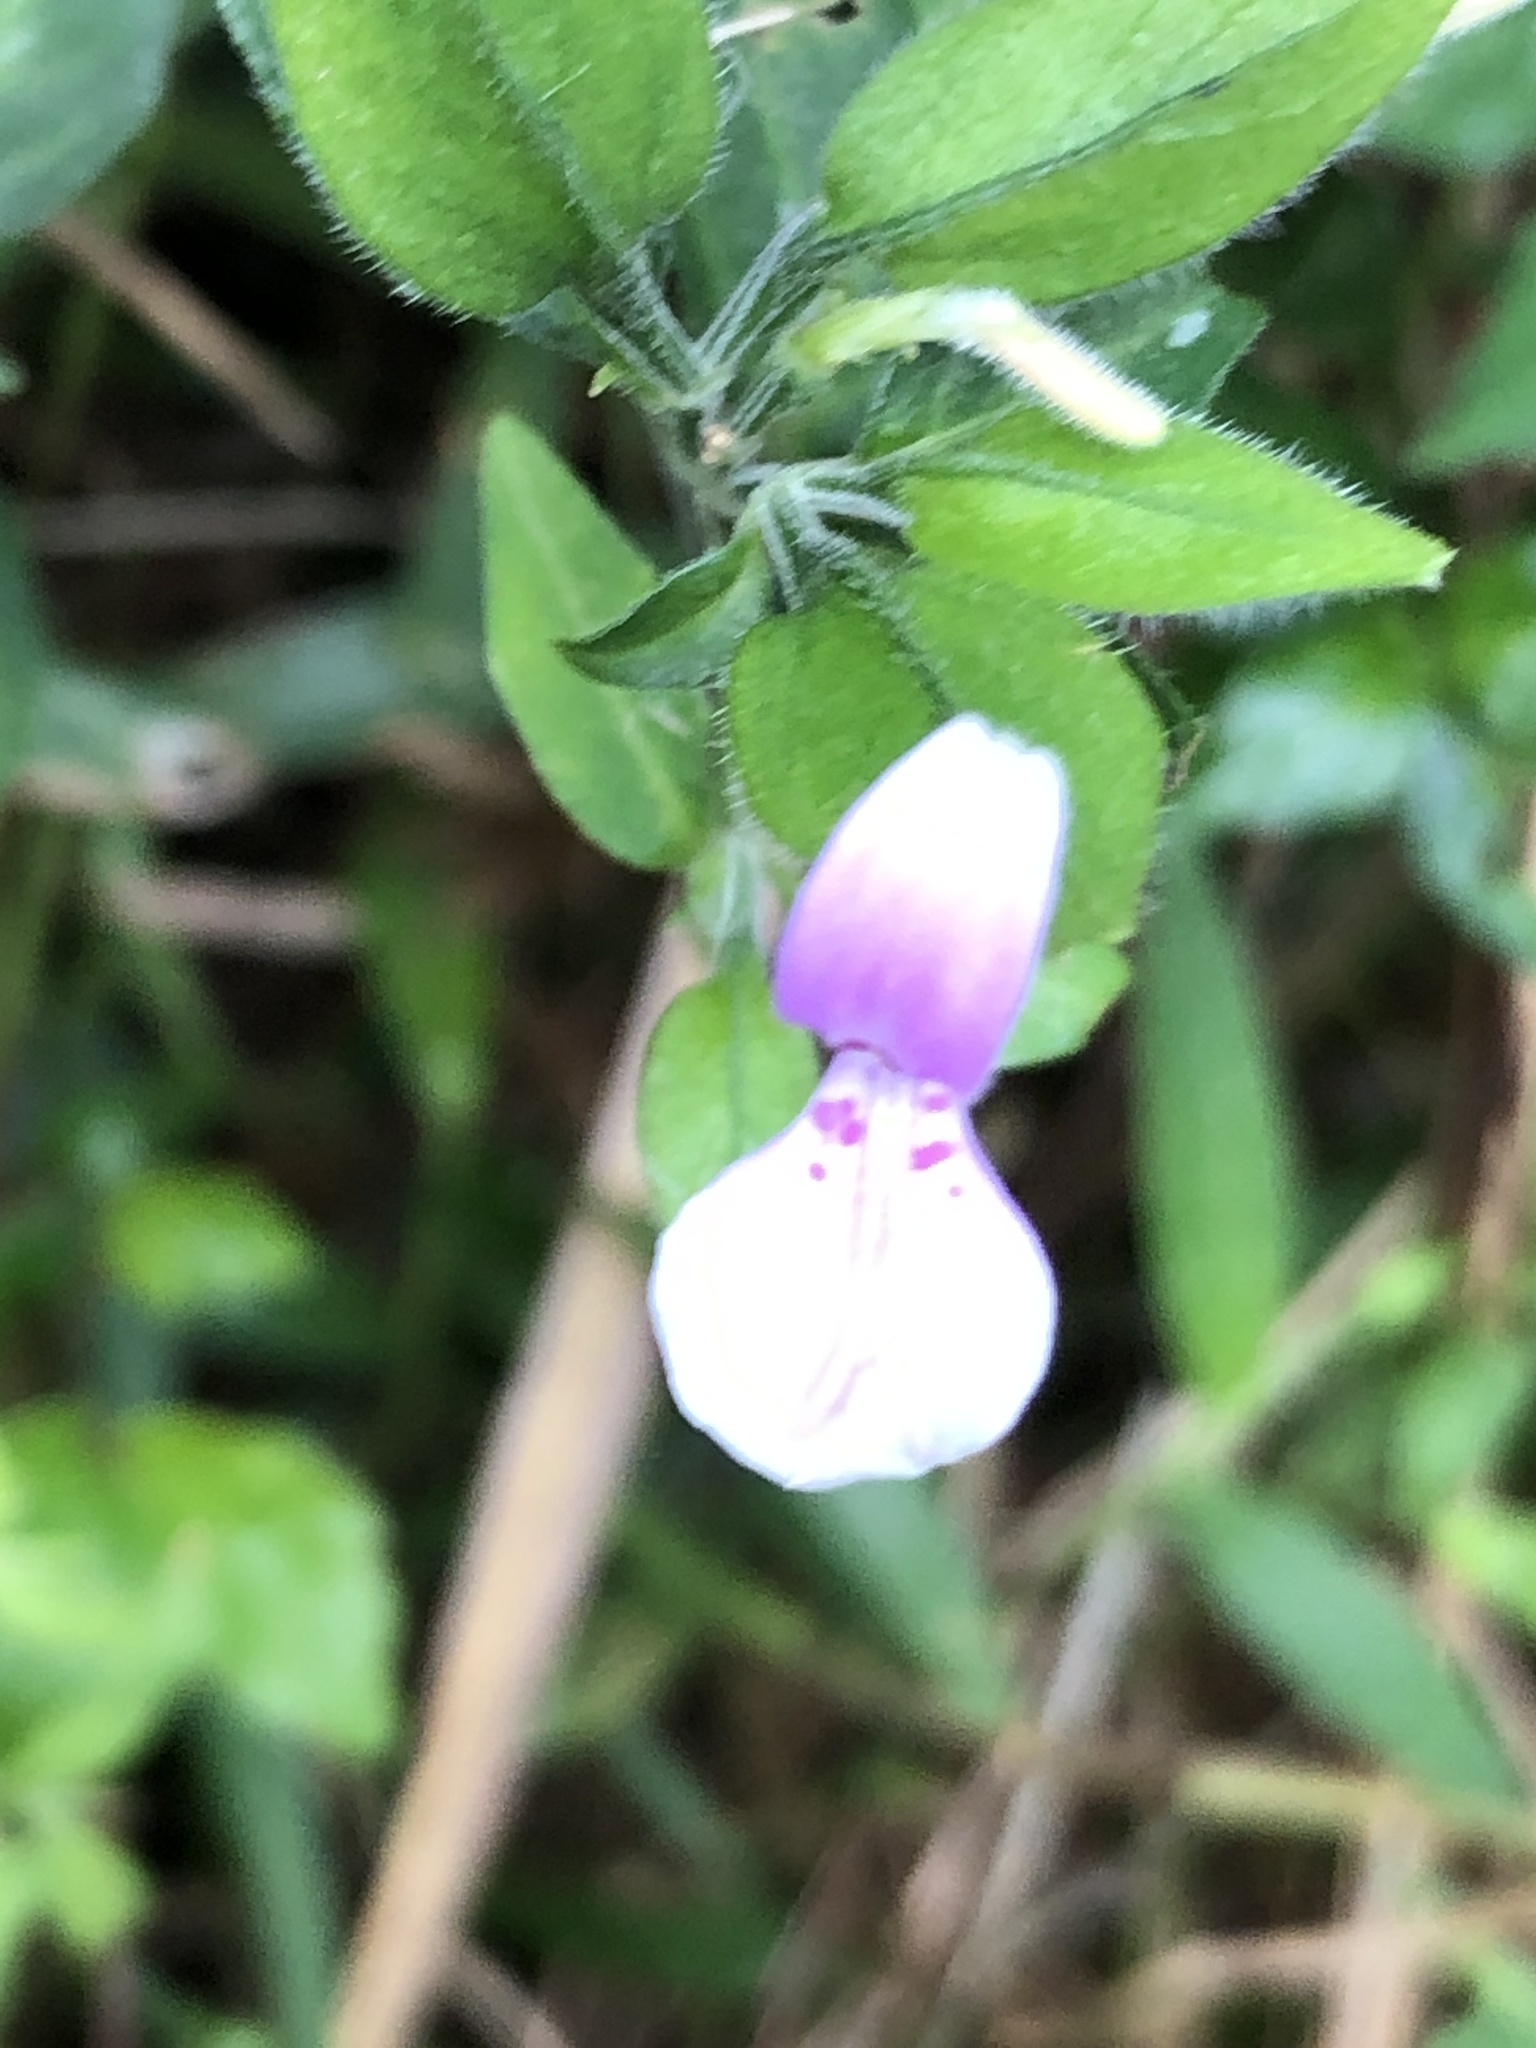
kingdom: Plantae
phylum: Tracheophyta
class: Magnoliopsida
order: Lamiales
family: Acanthaceae
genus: Dicliptera
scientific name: Dicliptera japonica
